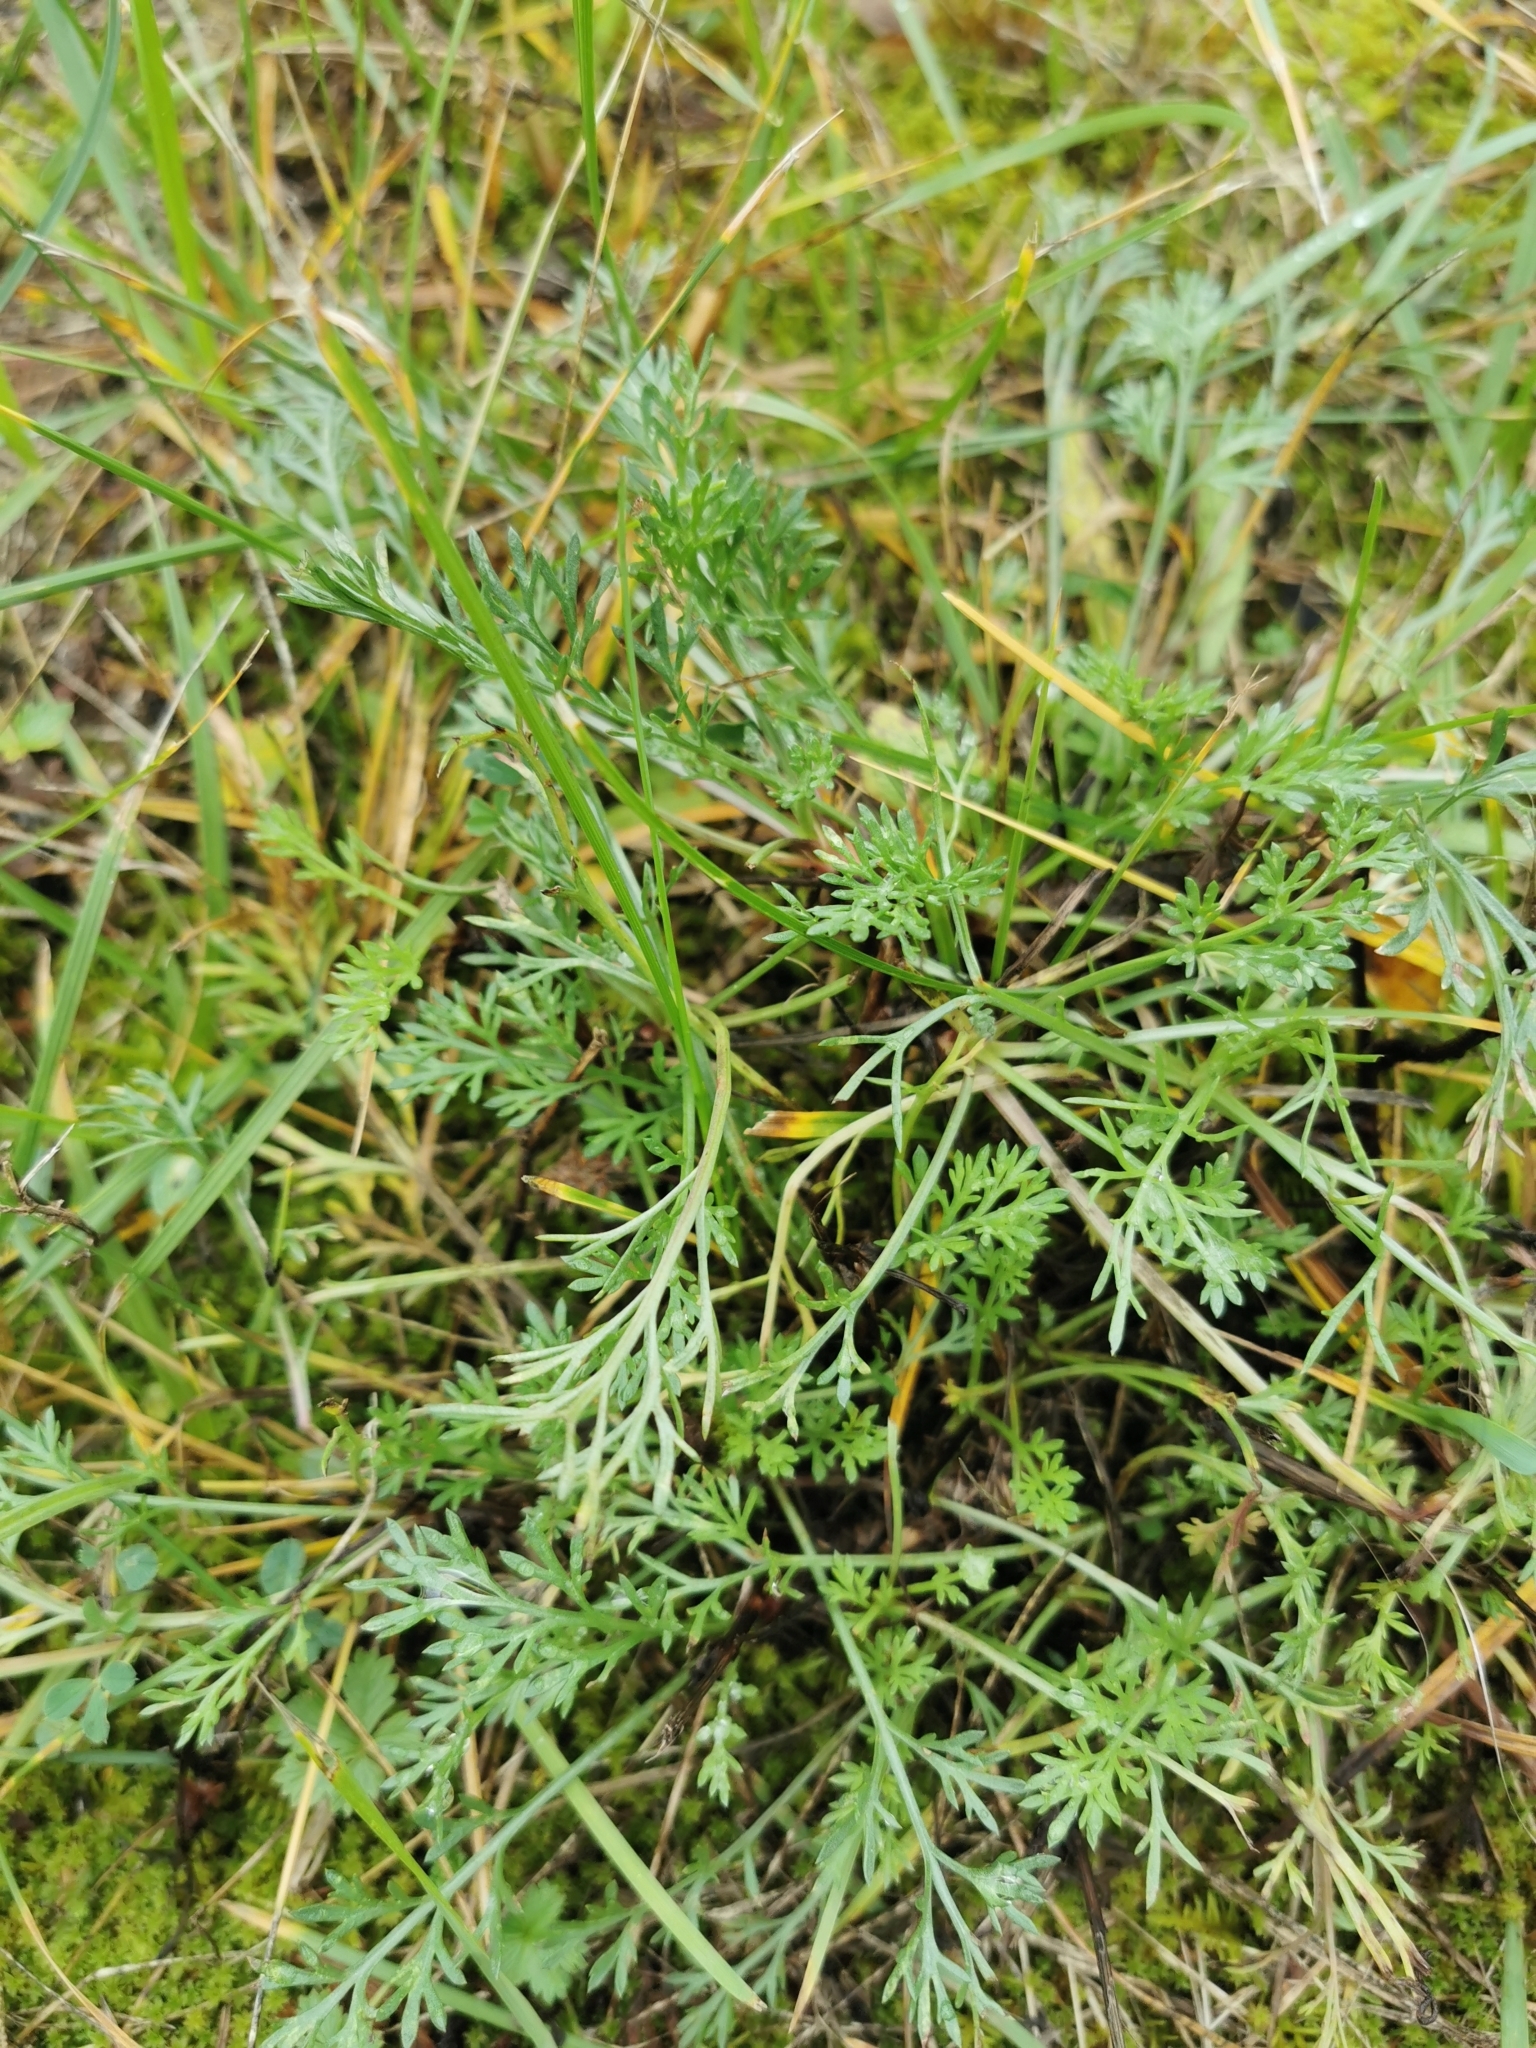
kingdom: Plantae
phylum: Tracheophyta
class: Magnoliopsida
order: Asterales
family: Asteraceae
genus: Artemisia
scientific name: Artemisia campestris
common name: Field wormwood
